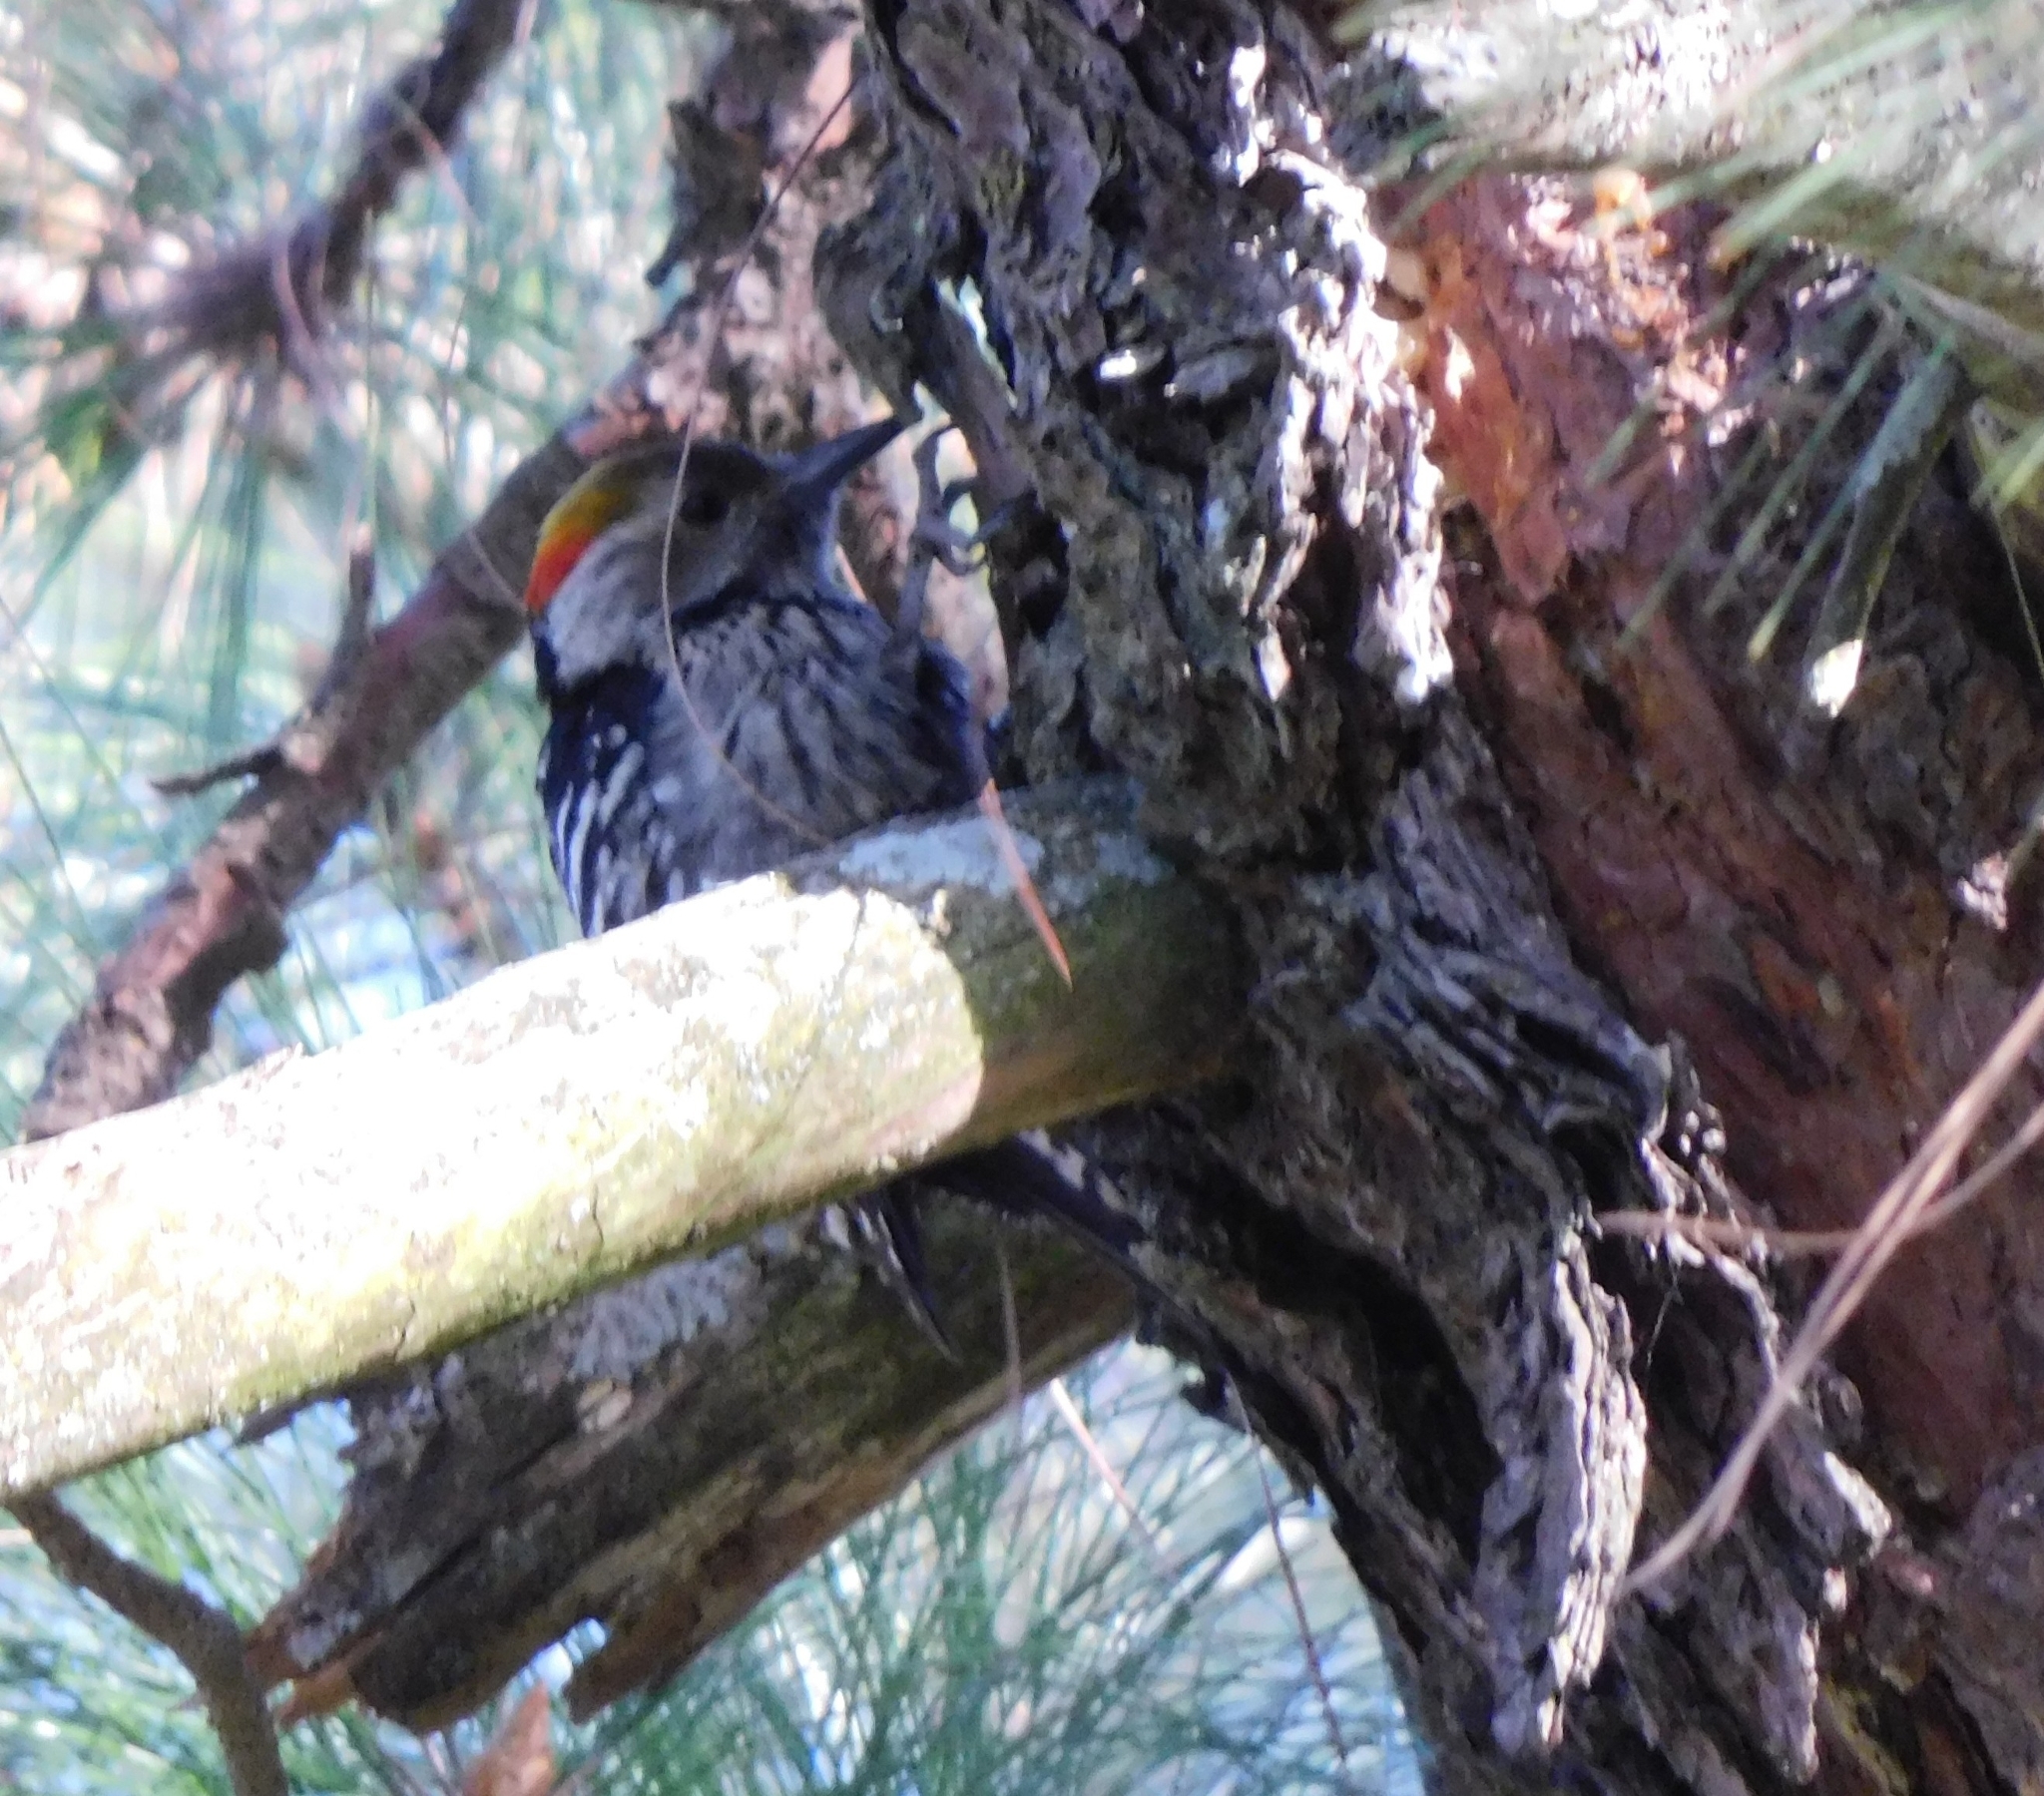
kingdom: Animalia
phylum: Chordata
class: Aves
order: Piciformes
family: Picidae
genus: Dendrocoptes
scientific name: Dendrocoptes auriceps
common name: Brown-fronted woodpecker
